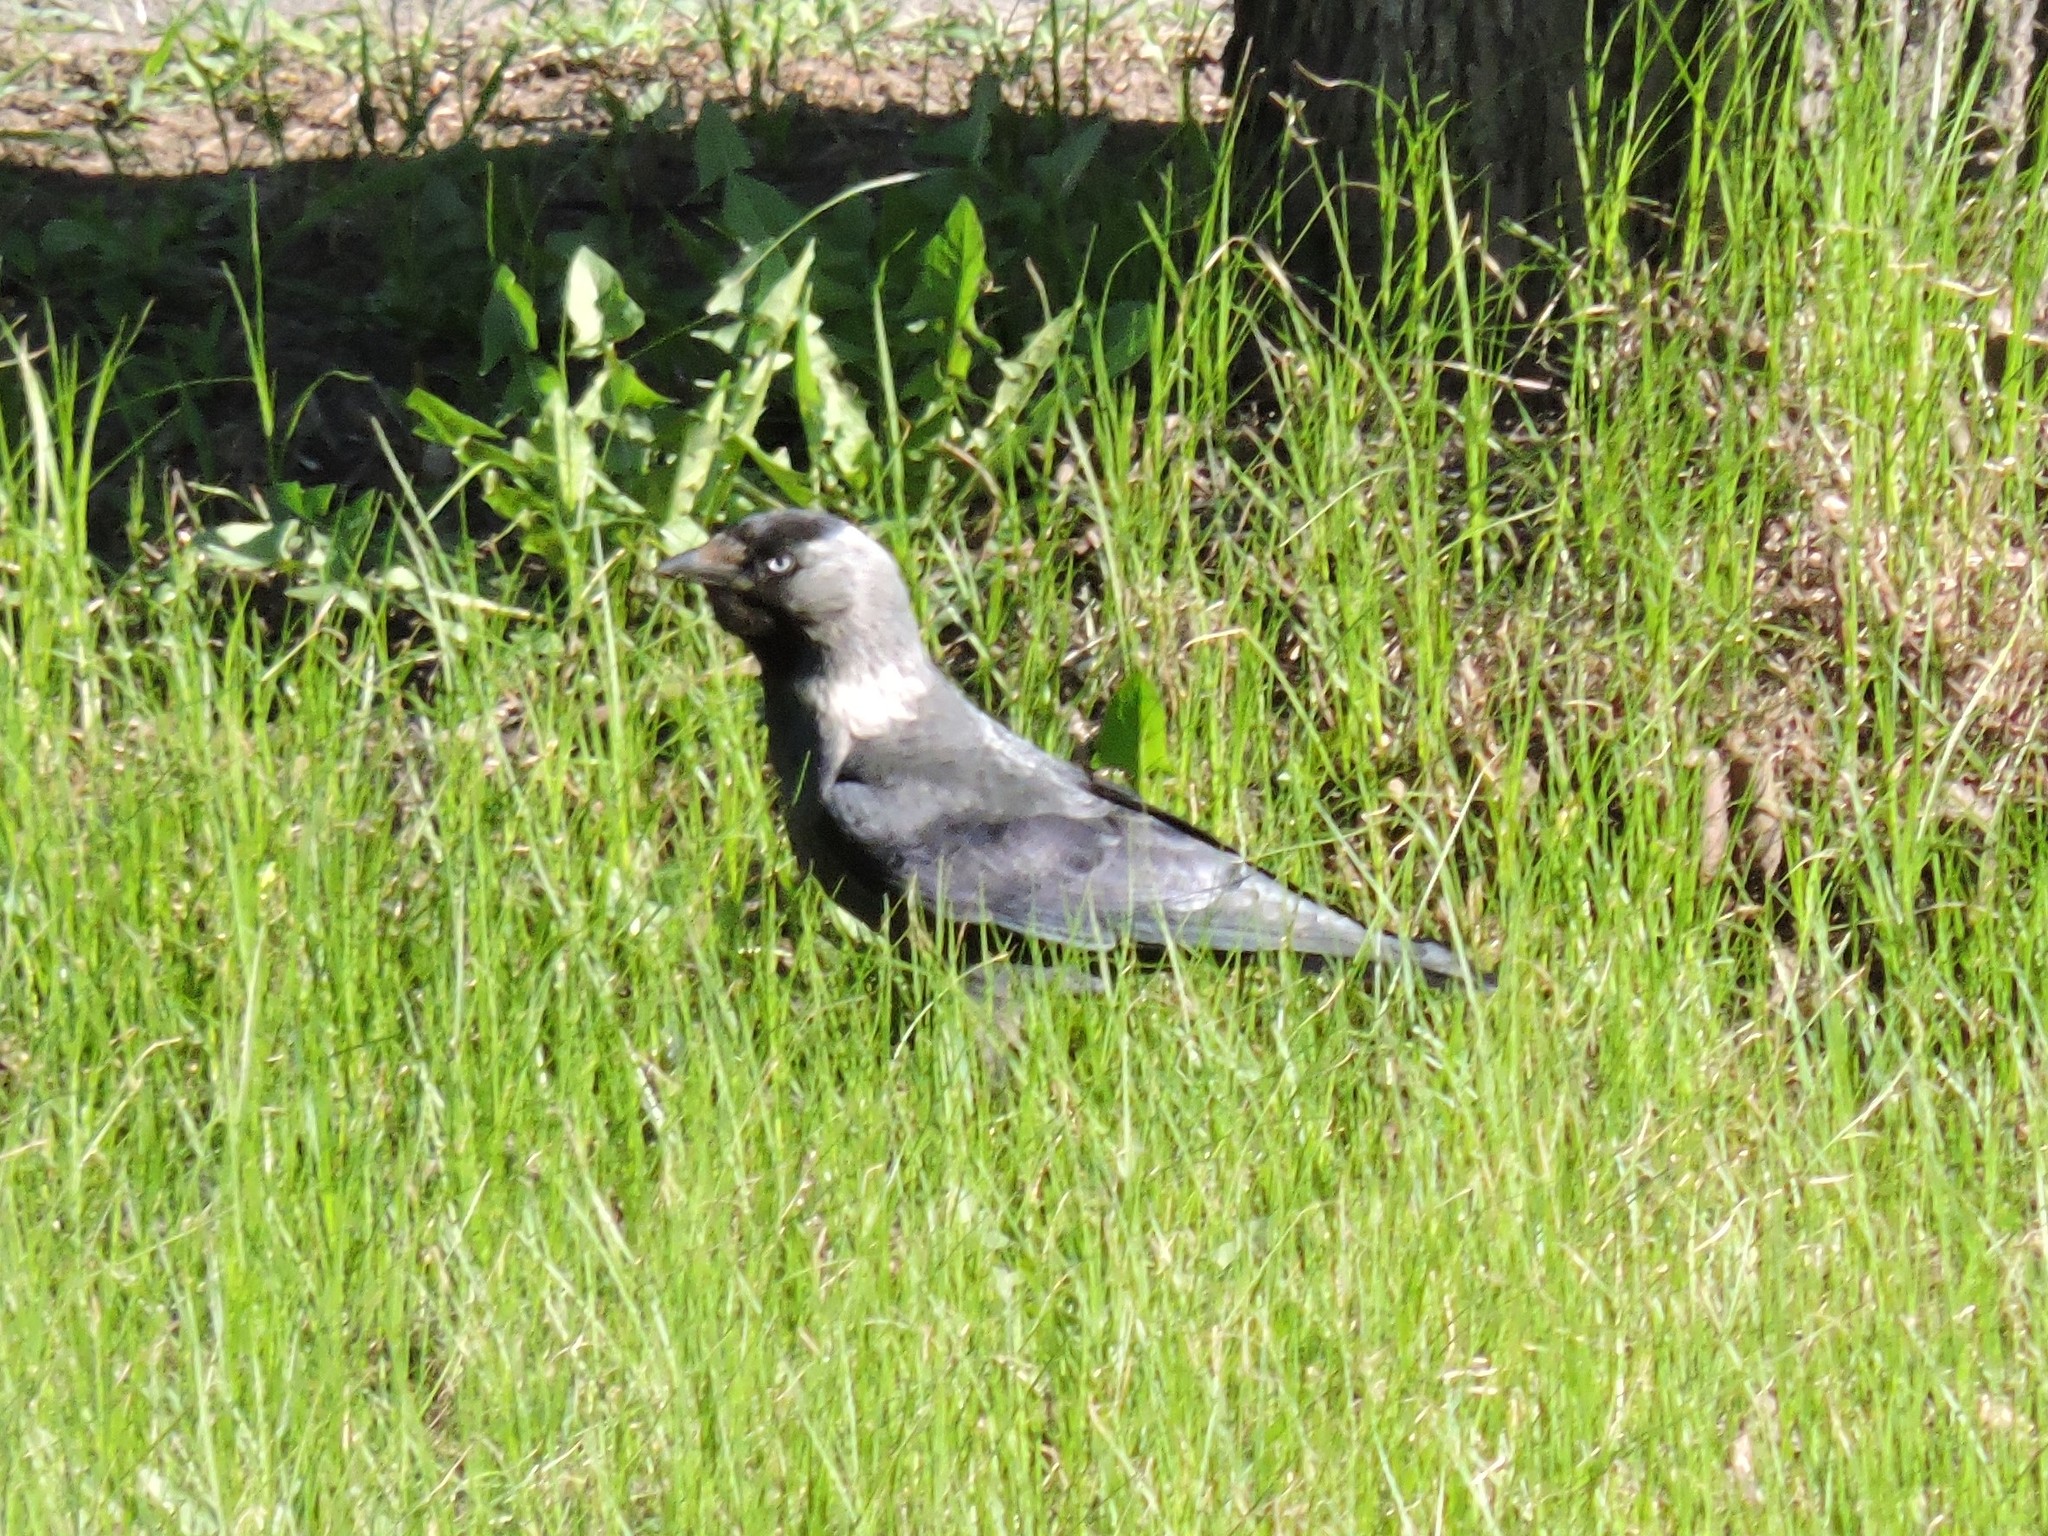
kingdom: Animalia
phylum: Chordata
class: Aves
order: Passeriformes
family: Corvidae
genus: Coloeus
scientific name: Coloeus monedula
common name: Western jackdaw
